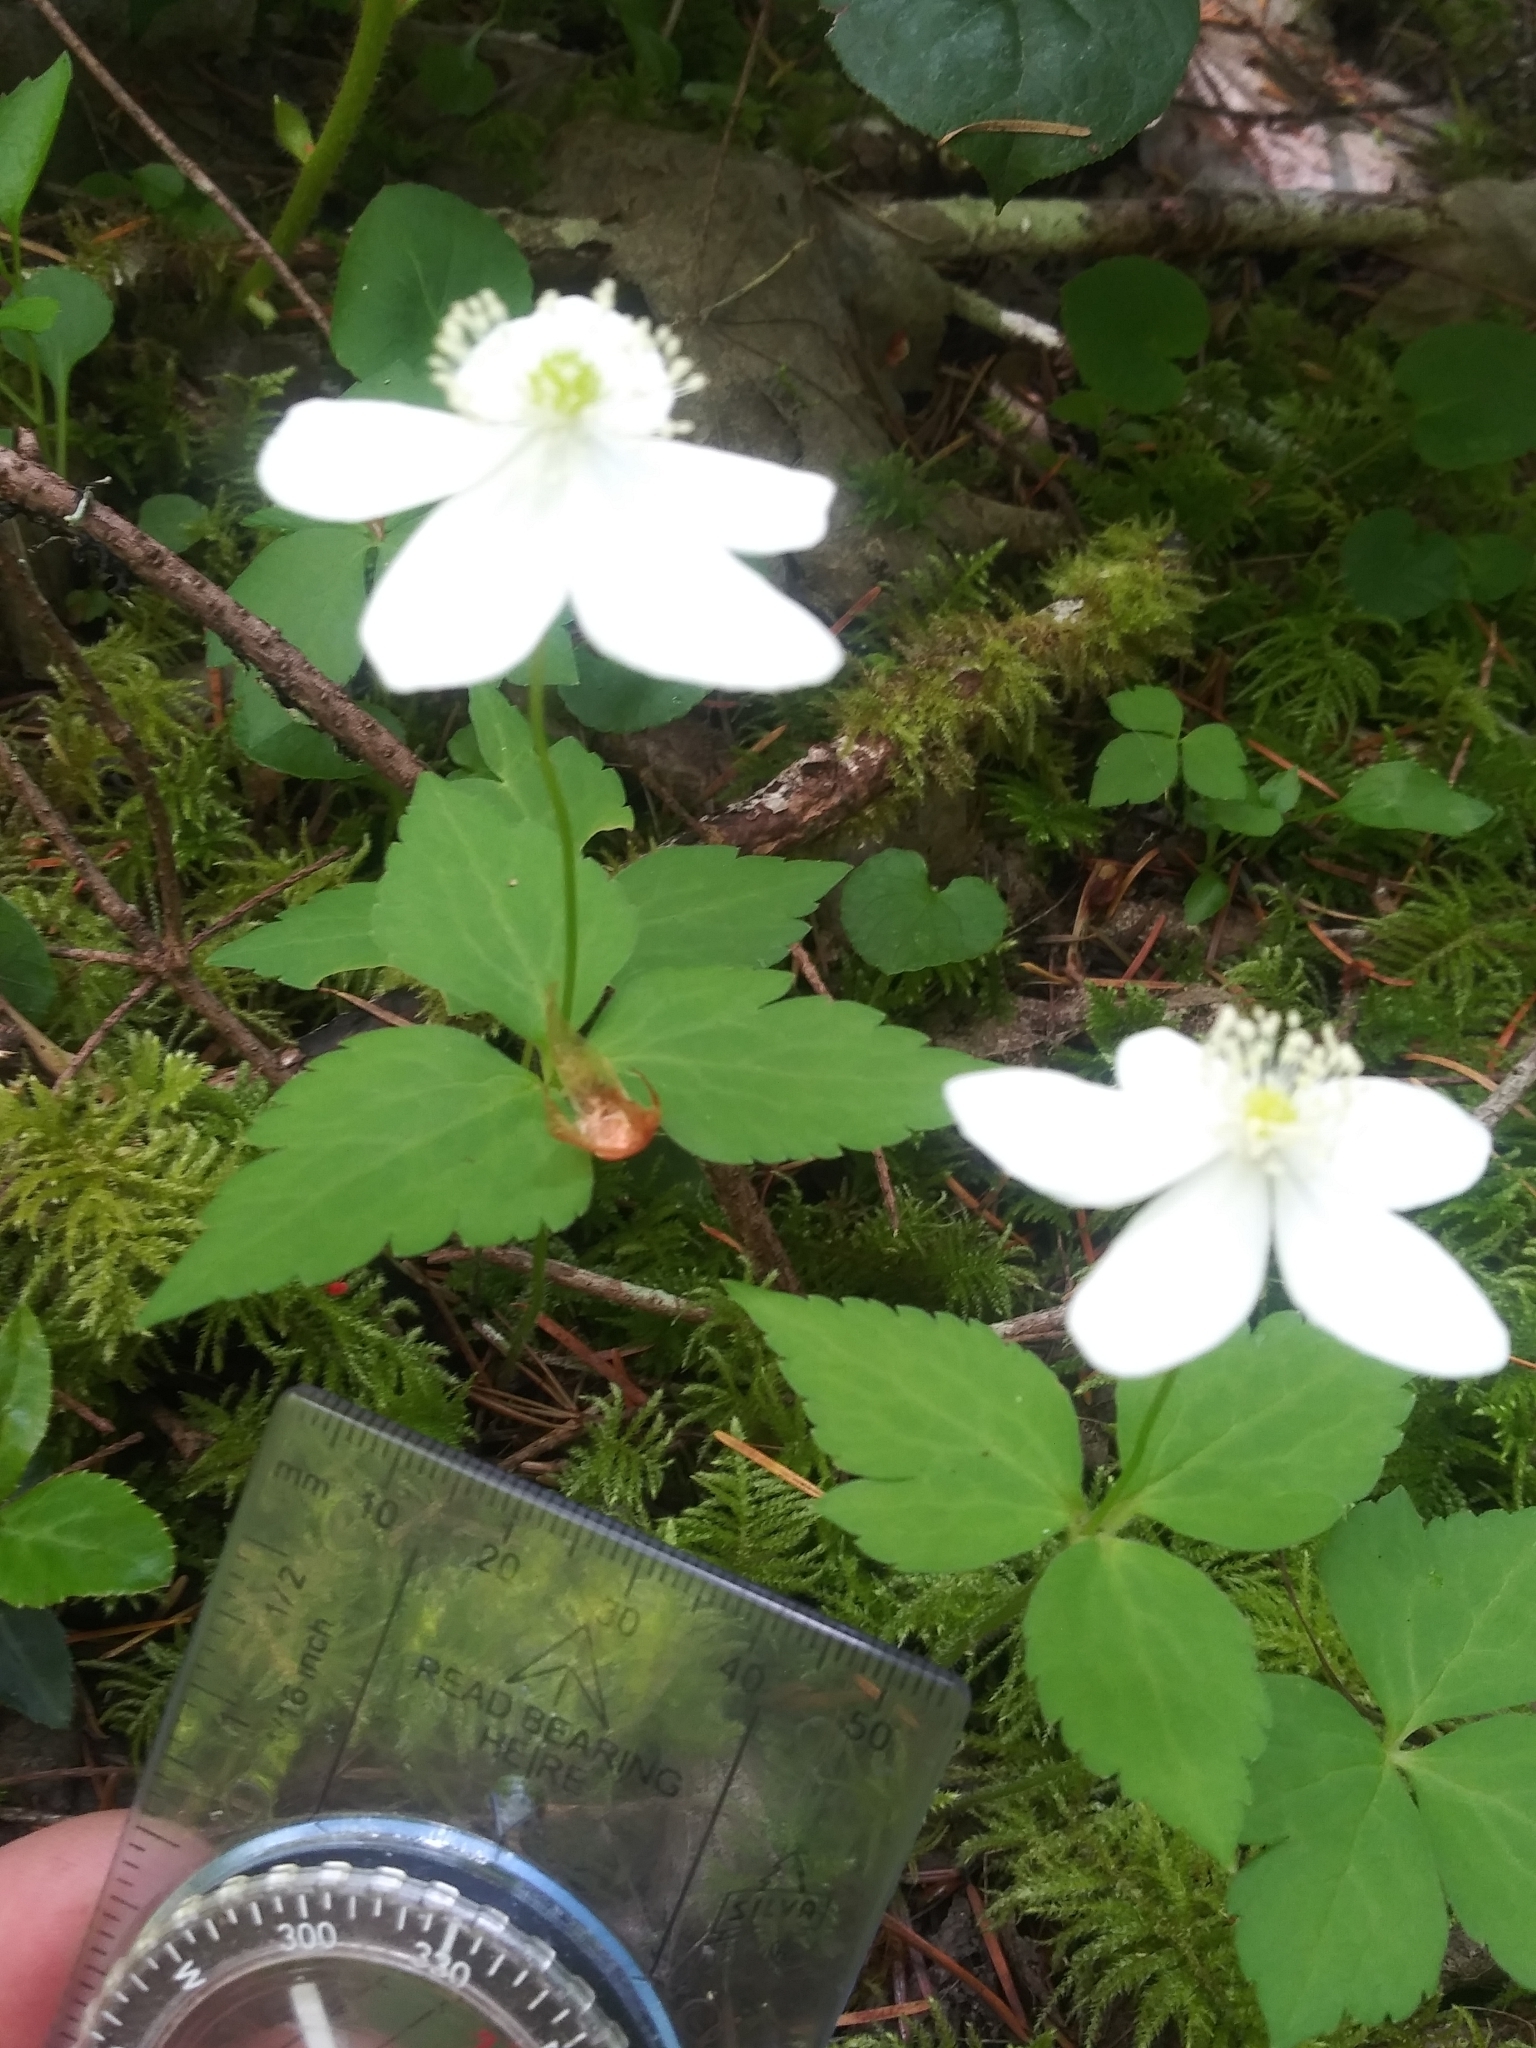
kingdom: Plantae
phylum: Tracheophyta
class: Magnoliopsida
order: Ranunculales
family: Ranunculaceae
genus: Anemonastrum
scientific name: Anemonastrum deltoideum
